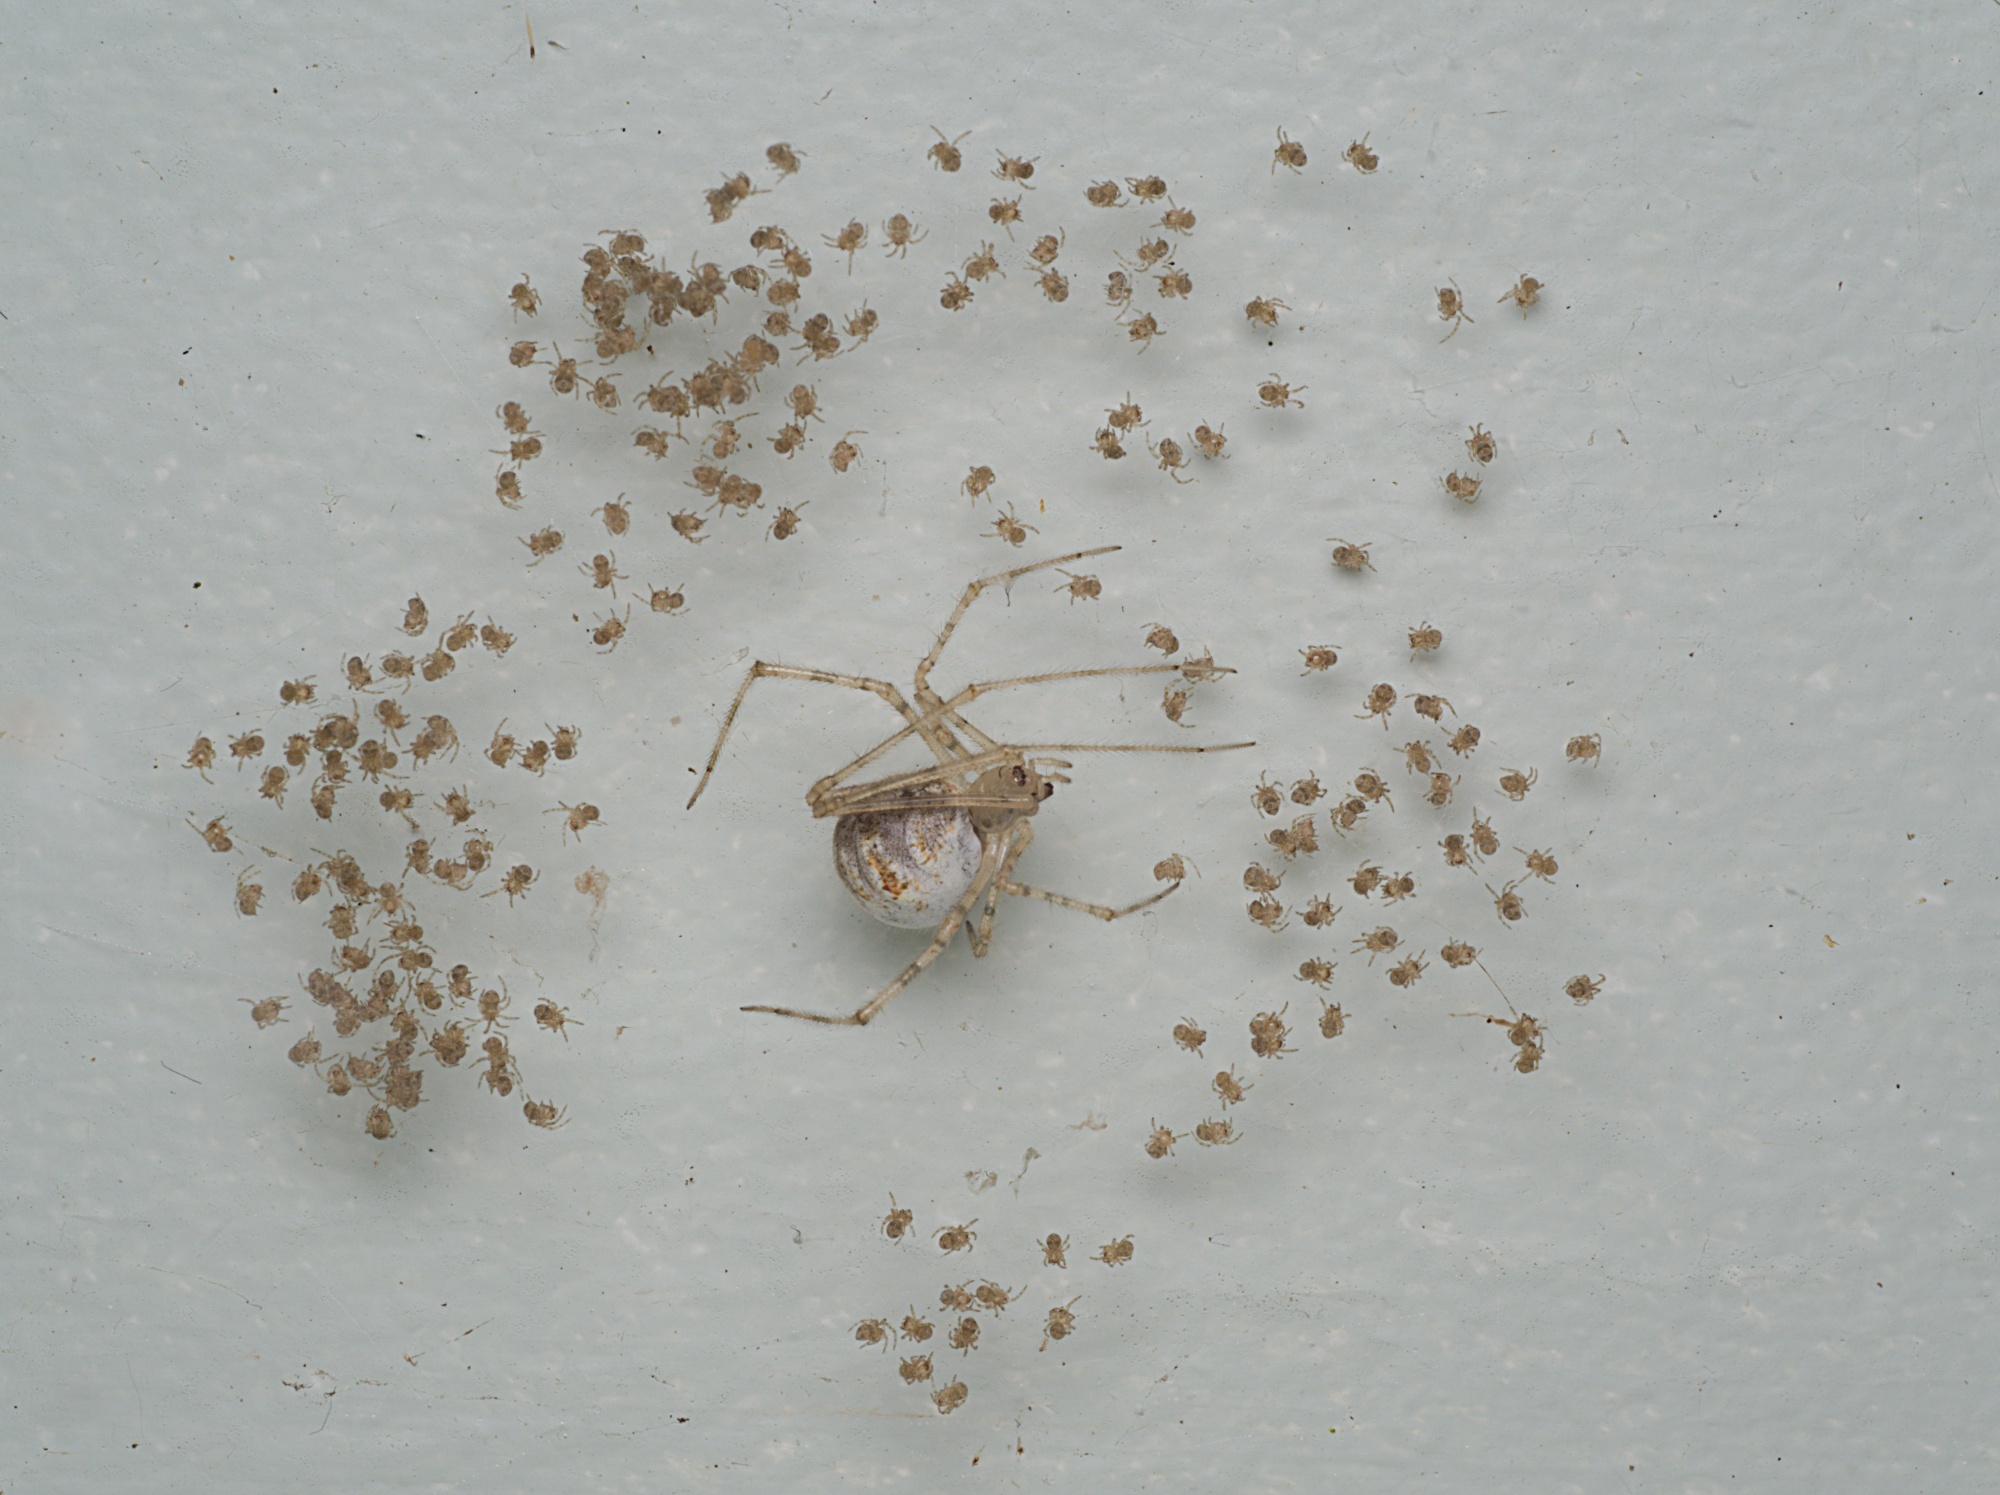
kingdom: Animalia
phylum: Arthropoda
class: Arachnida
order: Araneae
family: Theridiidae
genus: Cryptachaea
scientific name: Cryptachaea gigantipes
